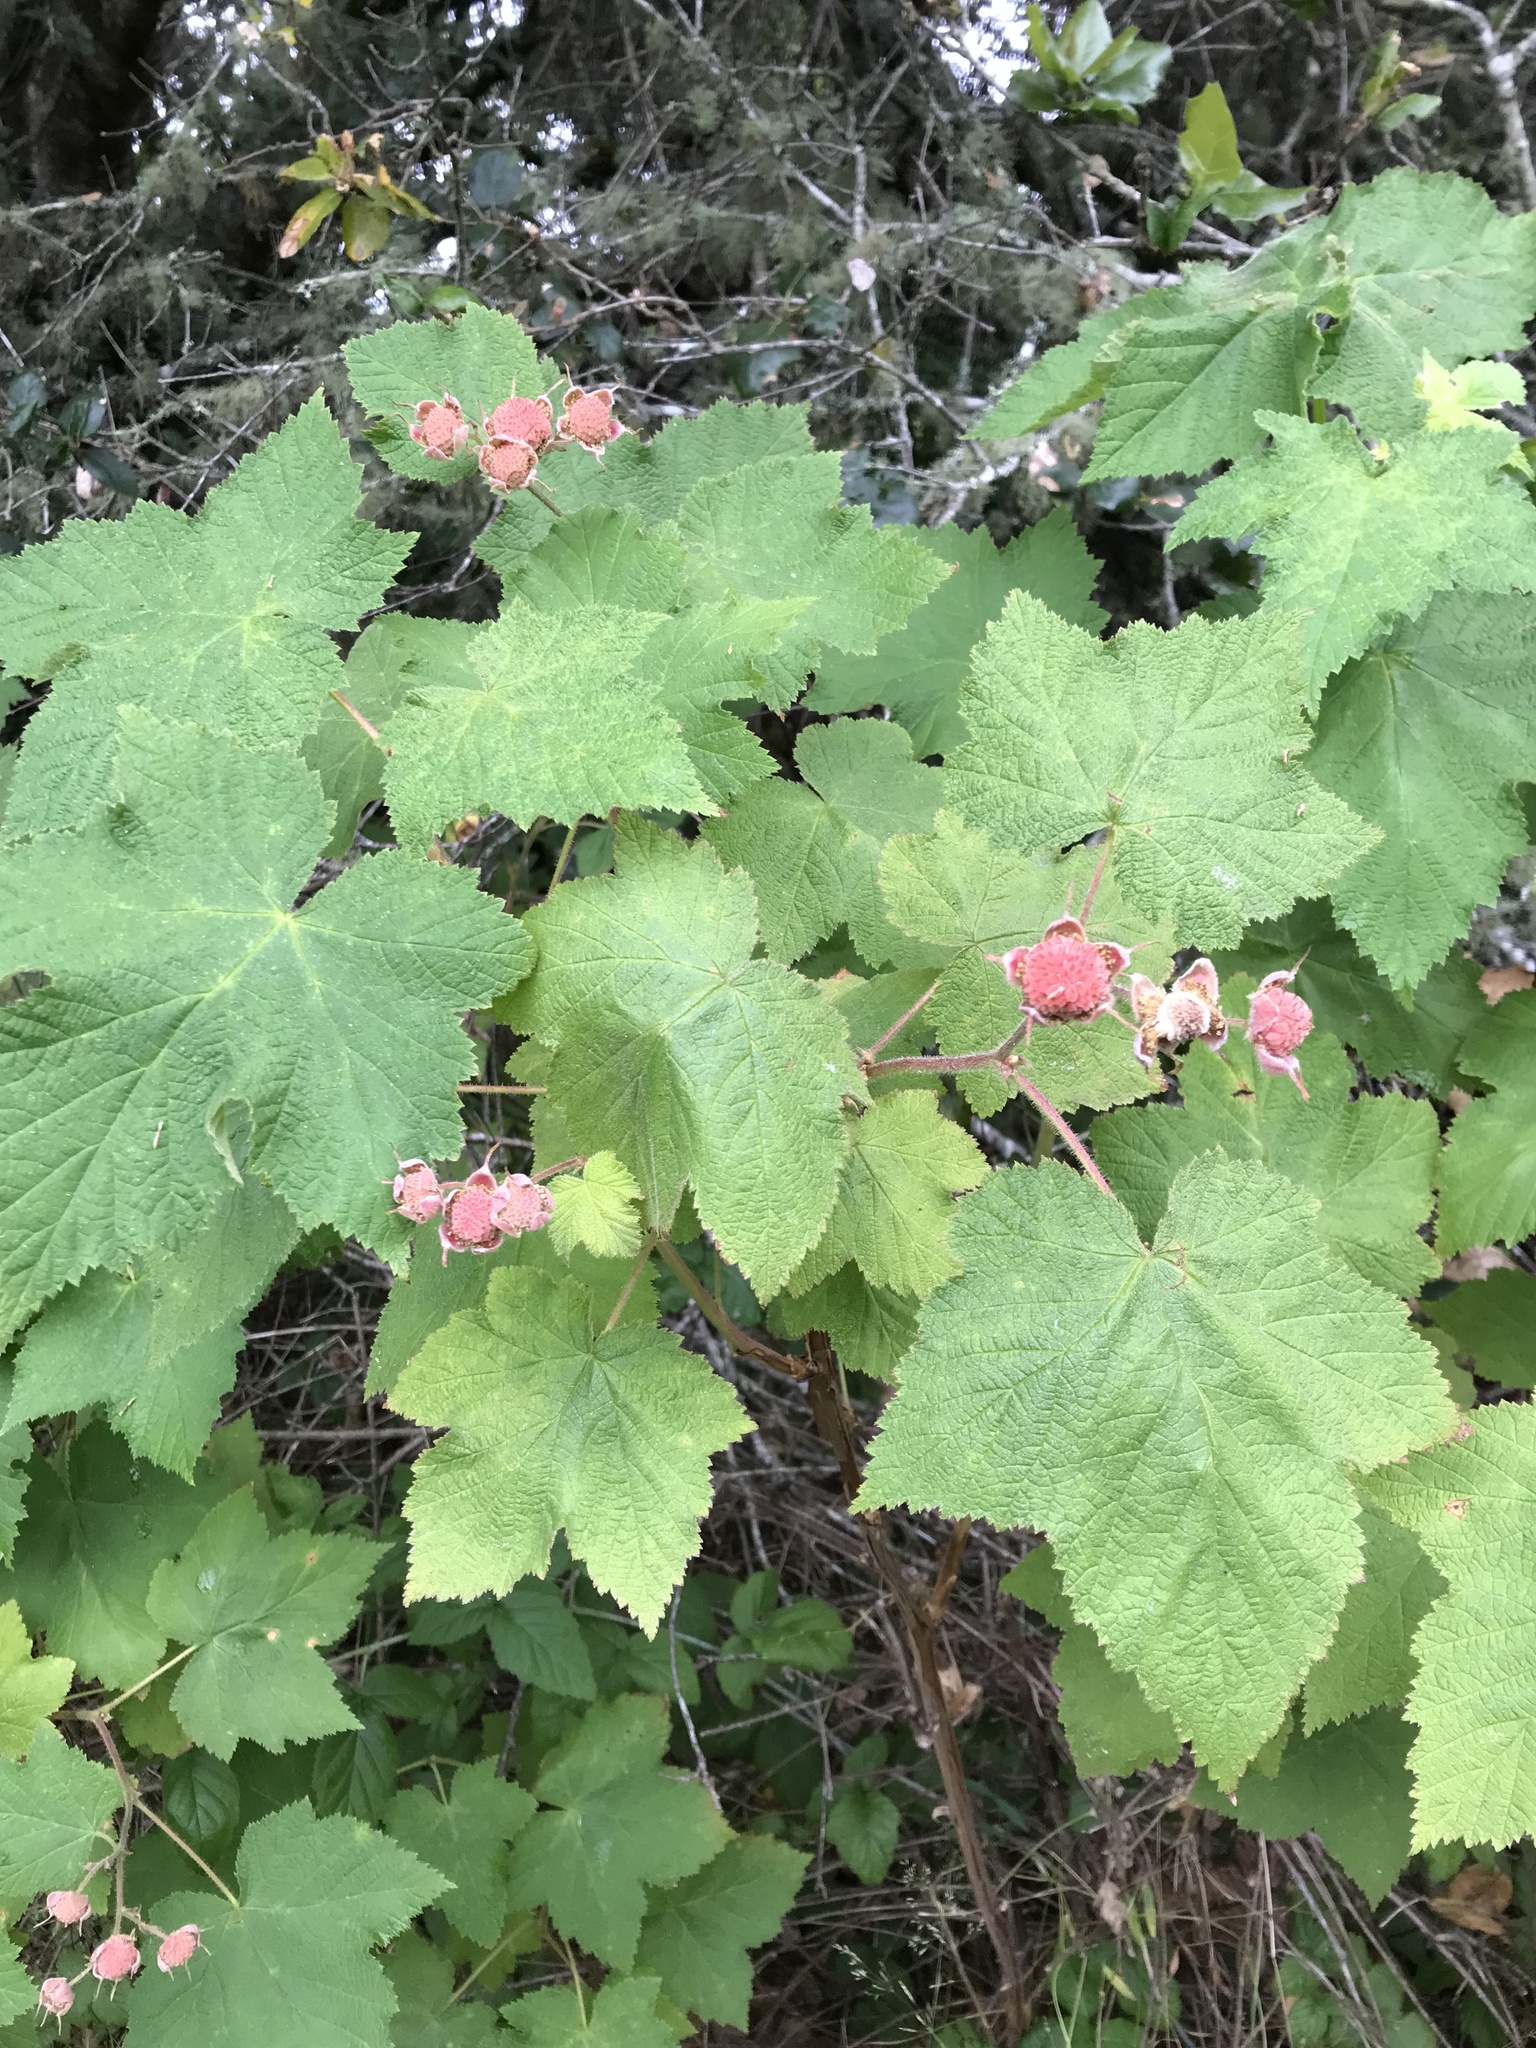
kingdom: Plantae
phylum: Tracheophyta
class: Magnoliopsida
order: Rosales
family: Rosaceae
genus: Rubus
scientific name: Rubus parviflorus
